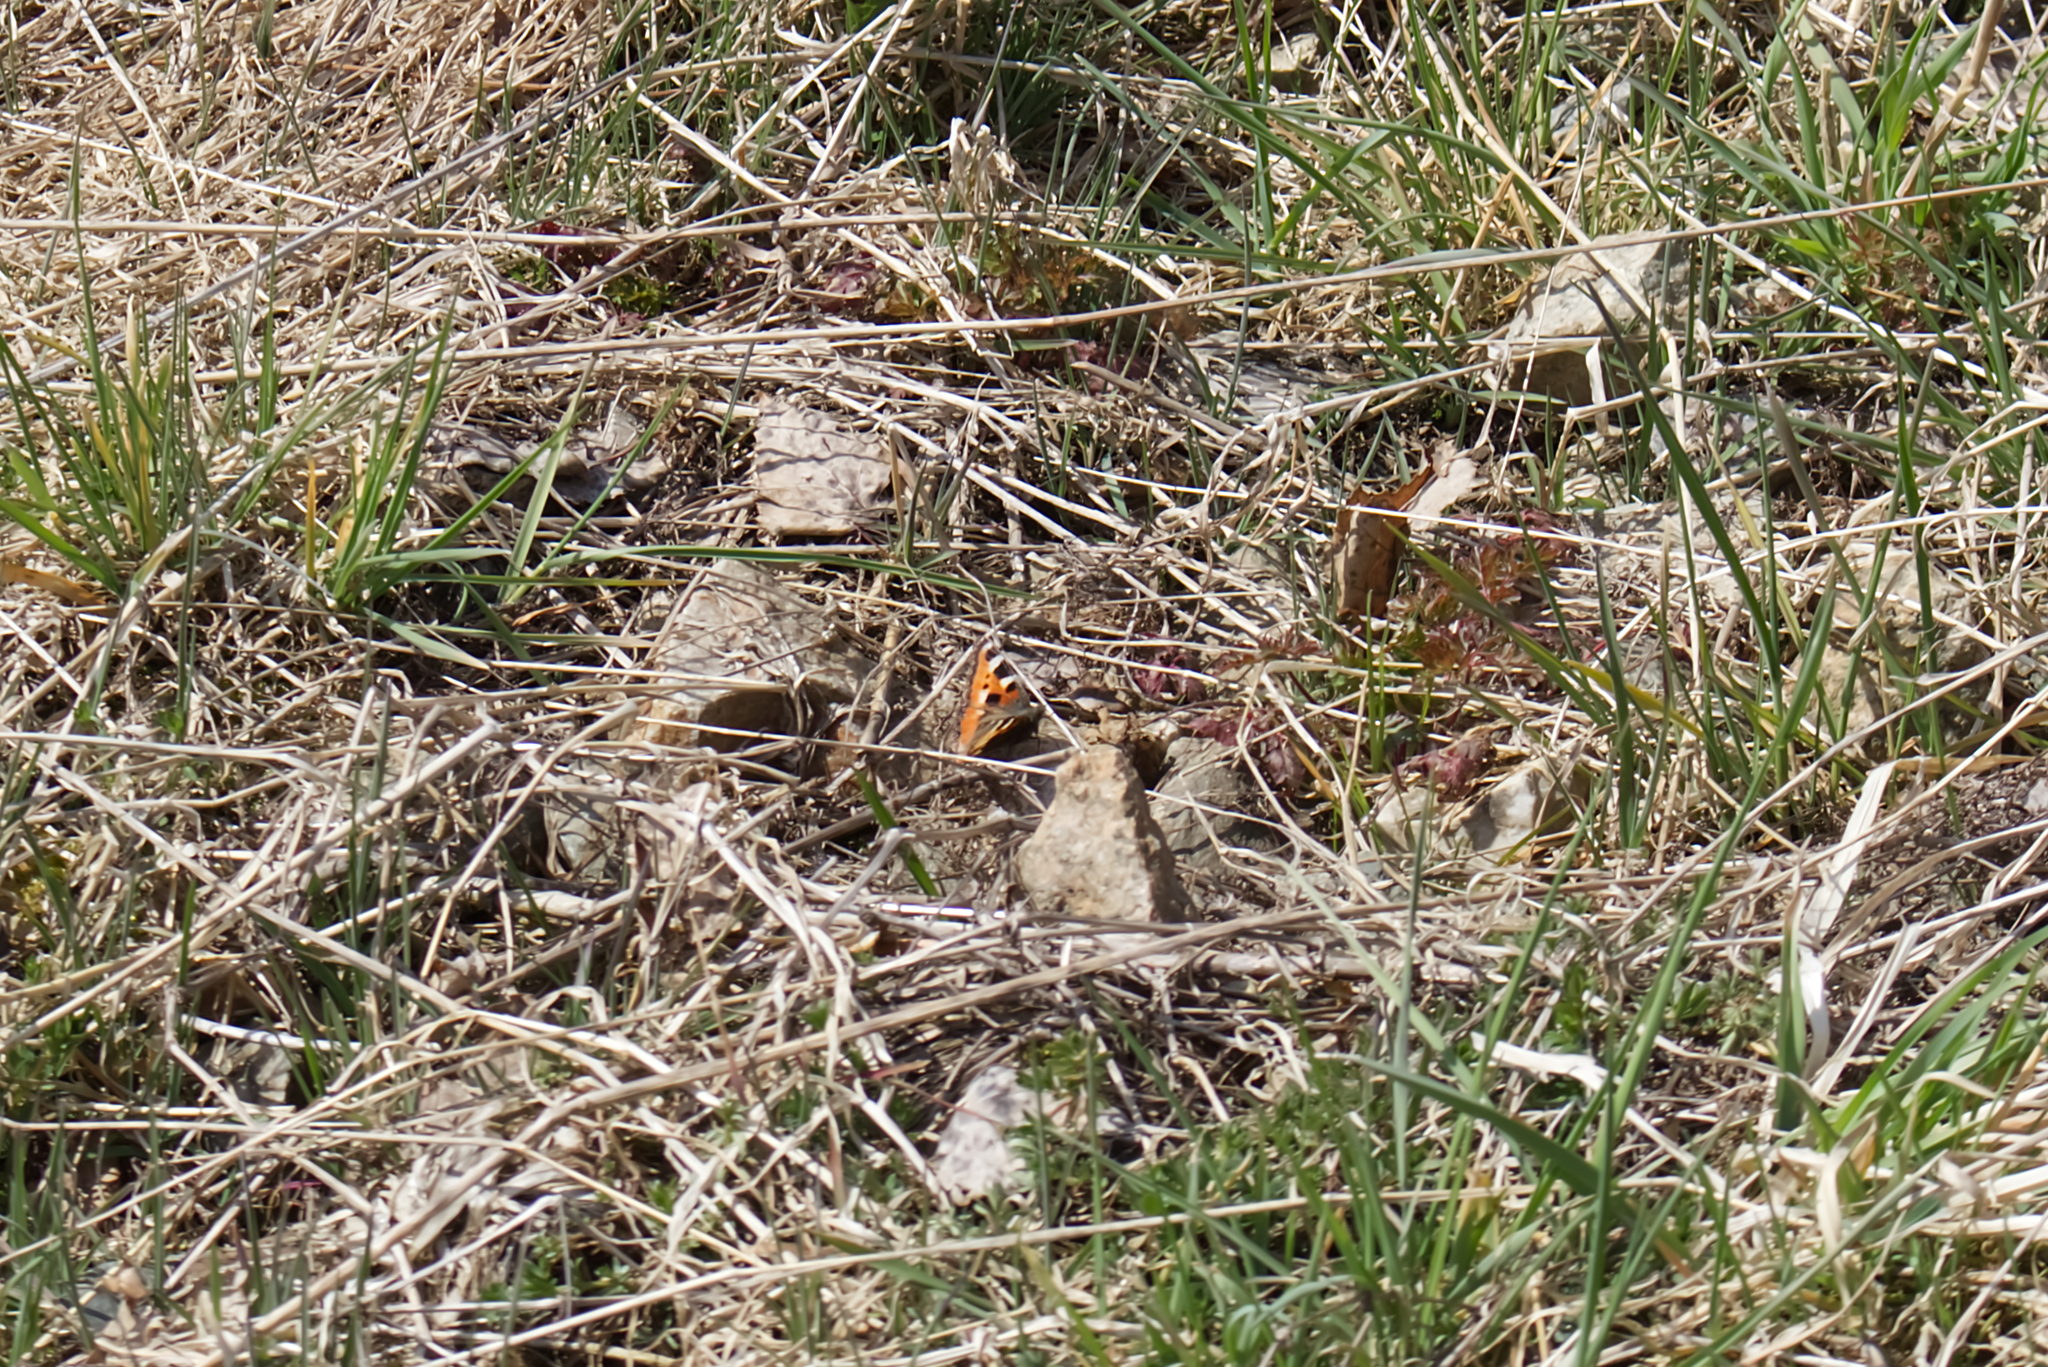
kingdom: Animalia
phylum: Arthropoda
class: Insecta
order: Lepidoptera
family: Nymphalidae
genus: Aglais
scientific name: Aglais urticae
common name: Small tortoiseshell
